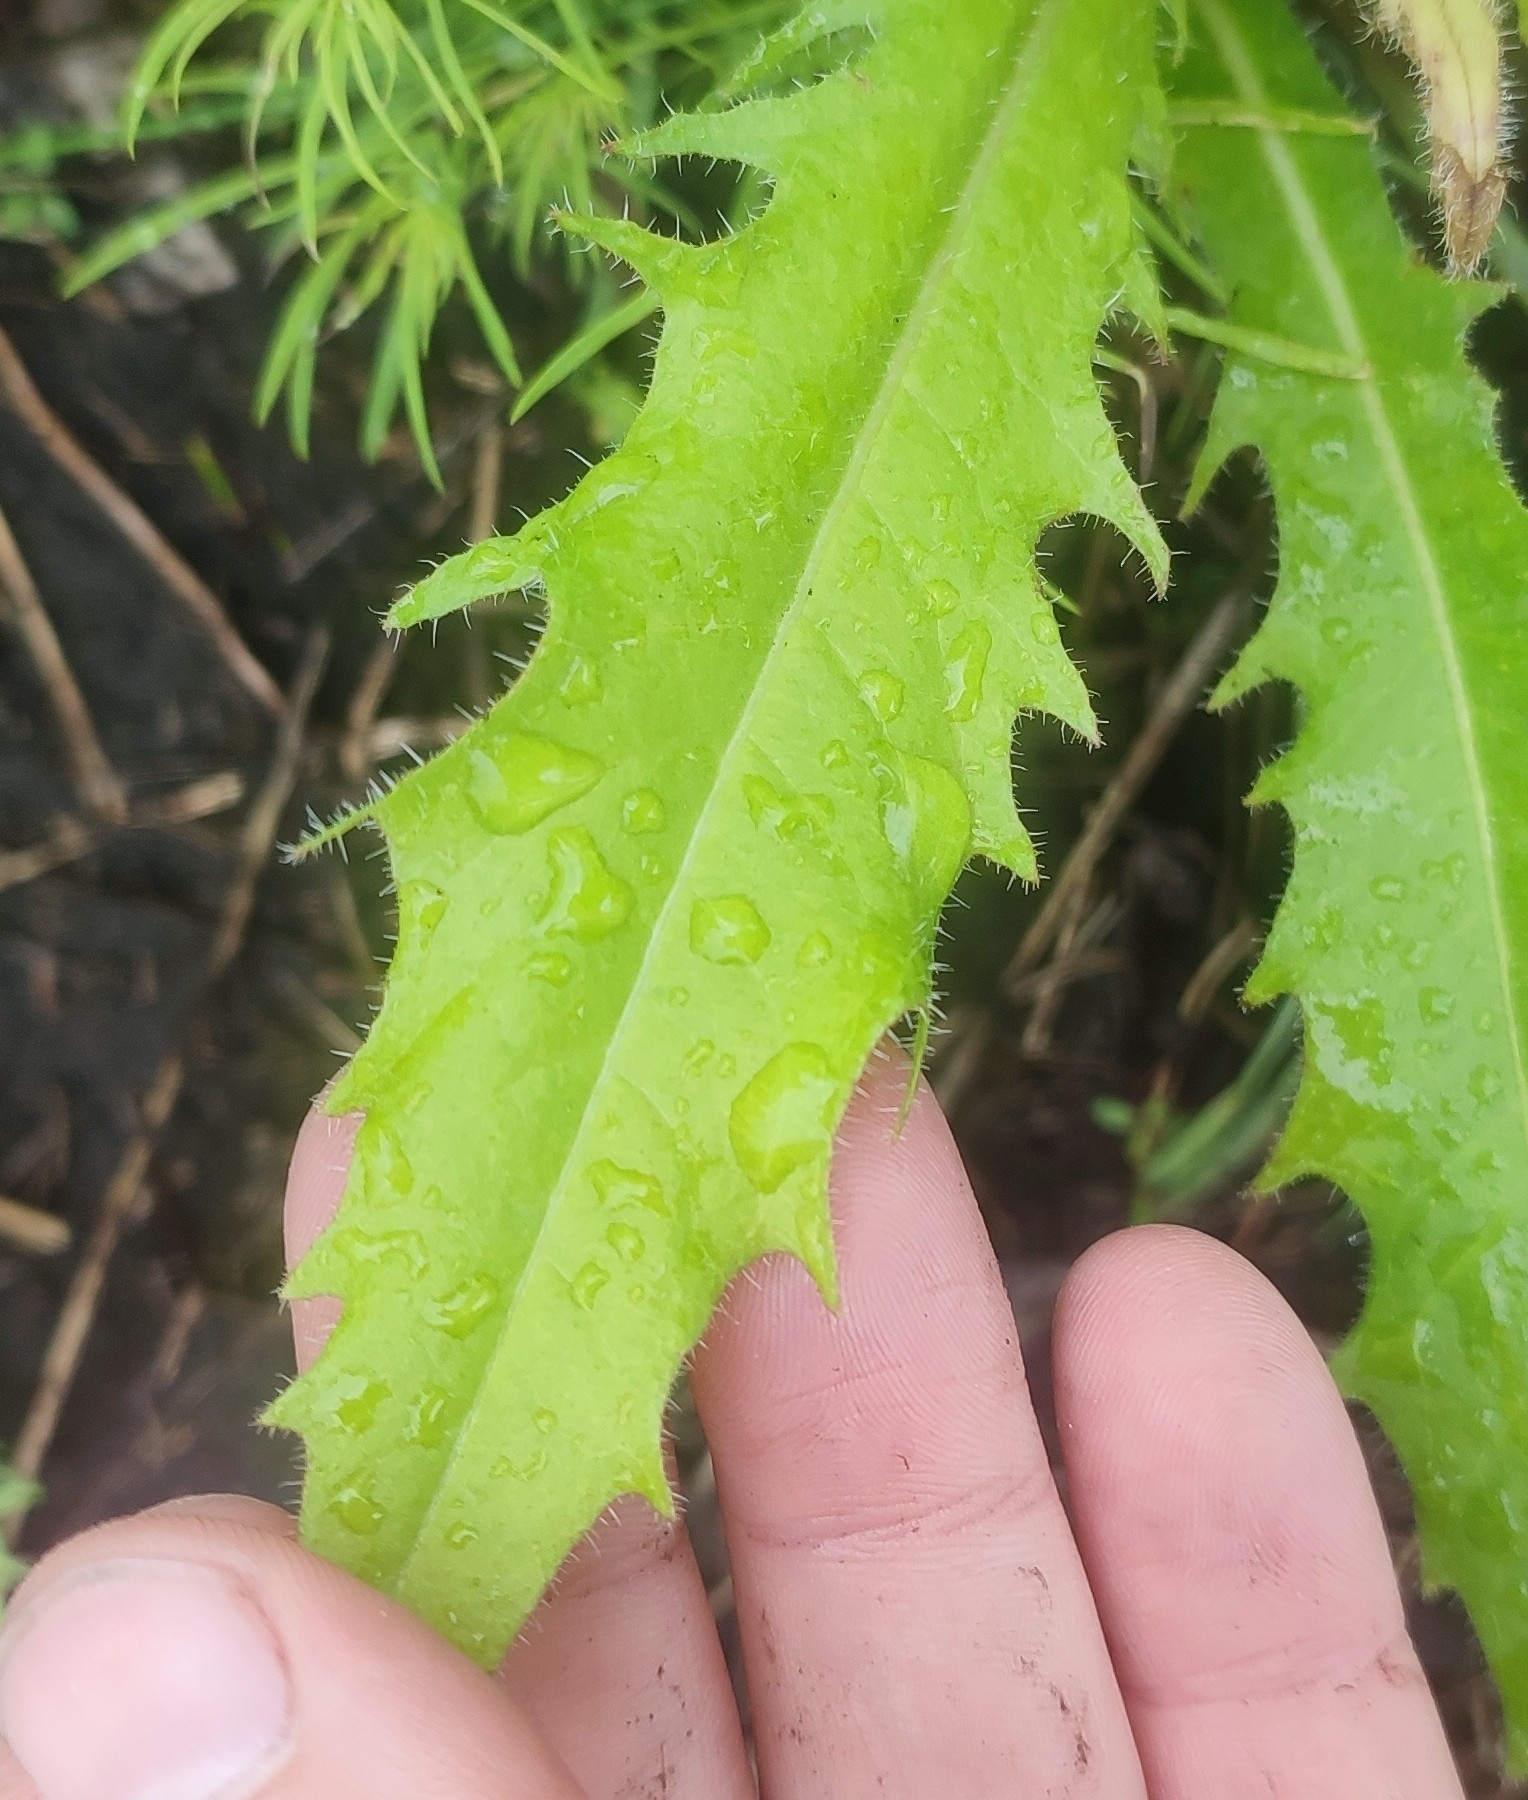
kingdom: Plantae
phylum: Tracheophyta
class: Magnoliopsida
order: Asterales
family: Asteraceae
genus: Picris
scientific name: Picris hieracioides
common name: Hawkweed oxtongue
